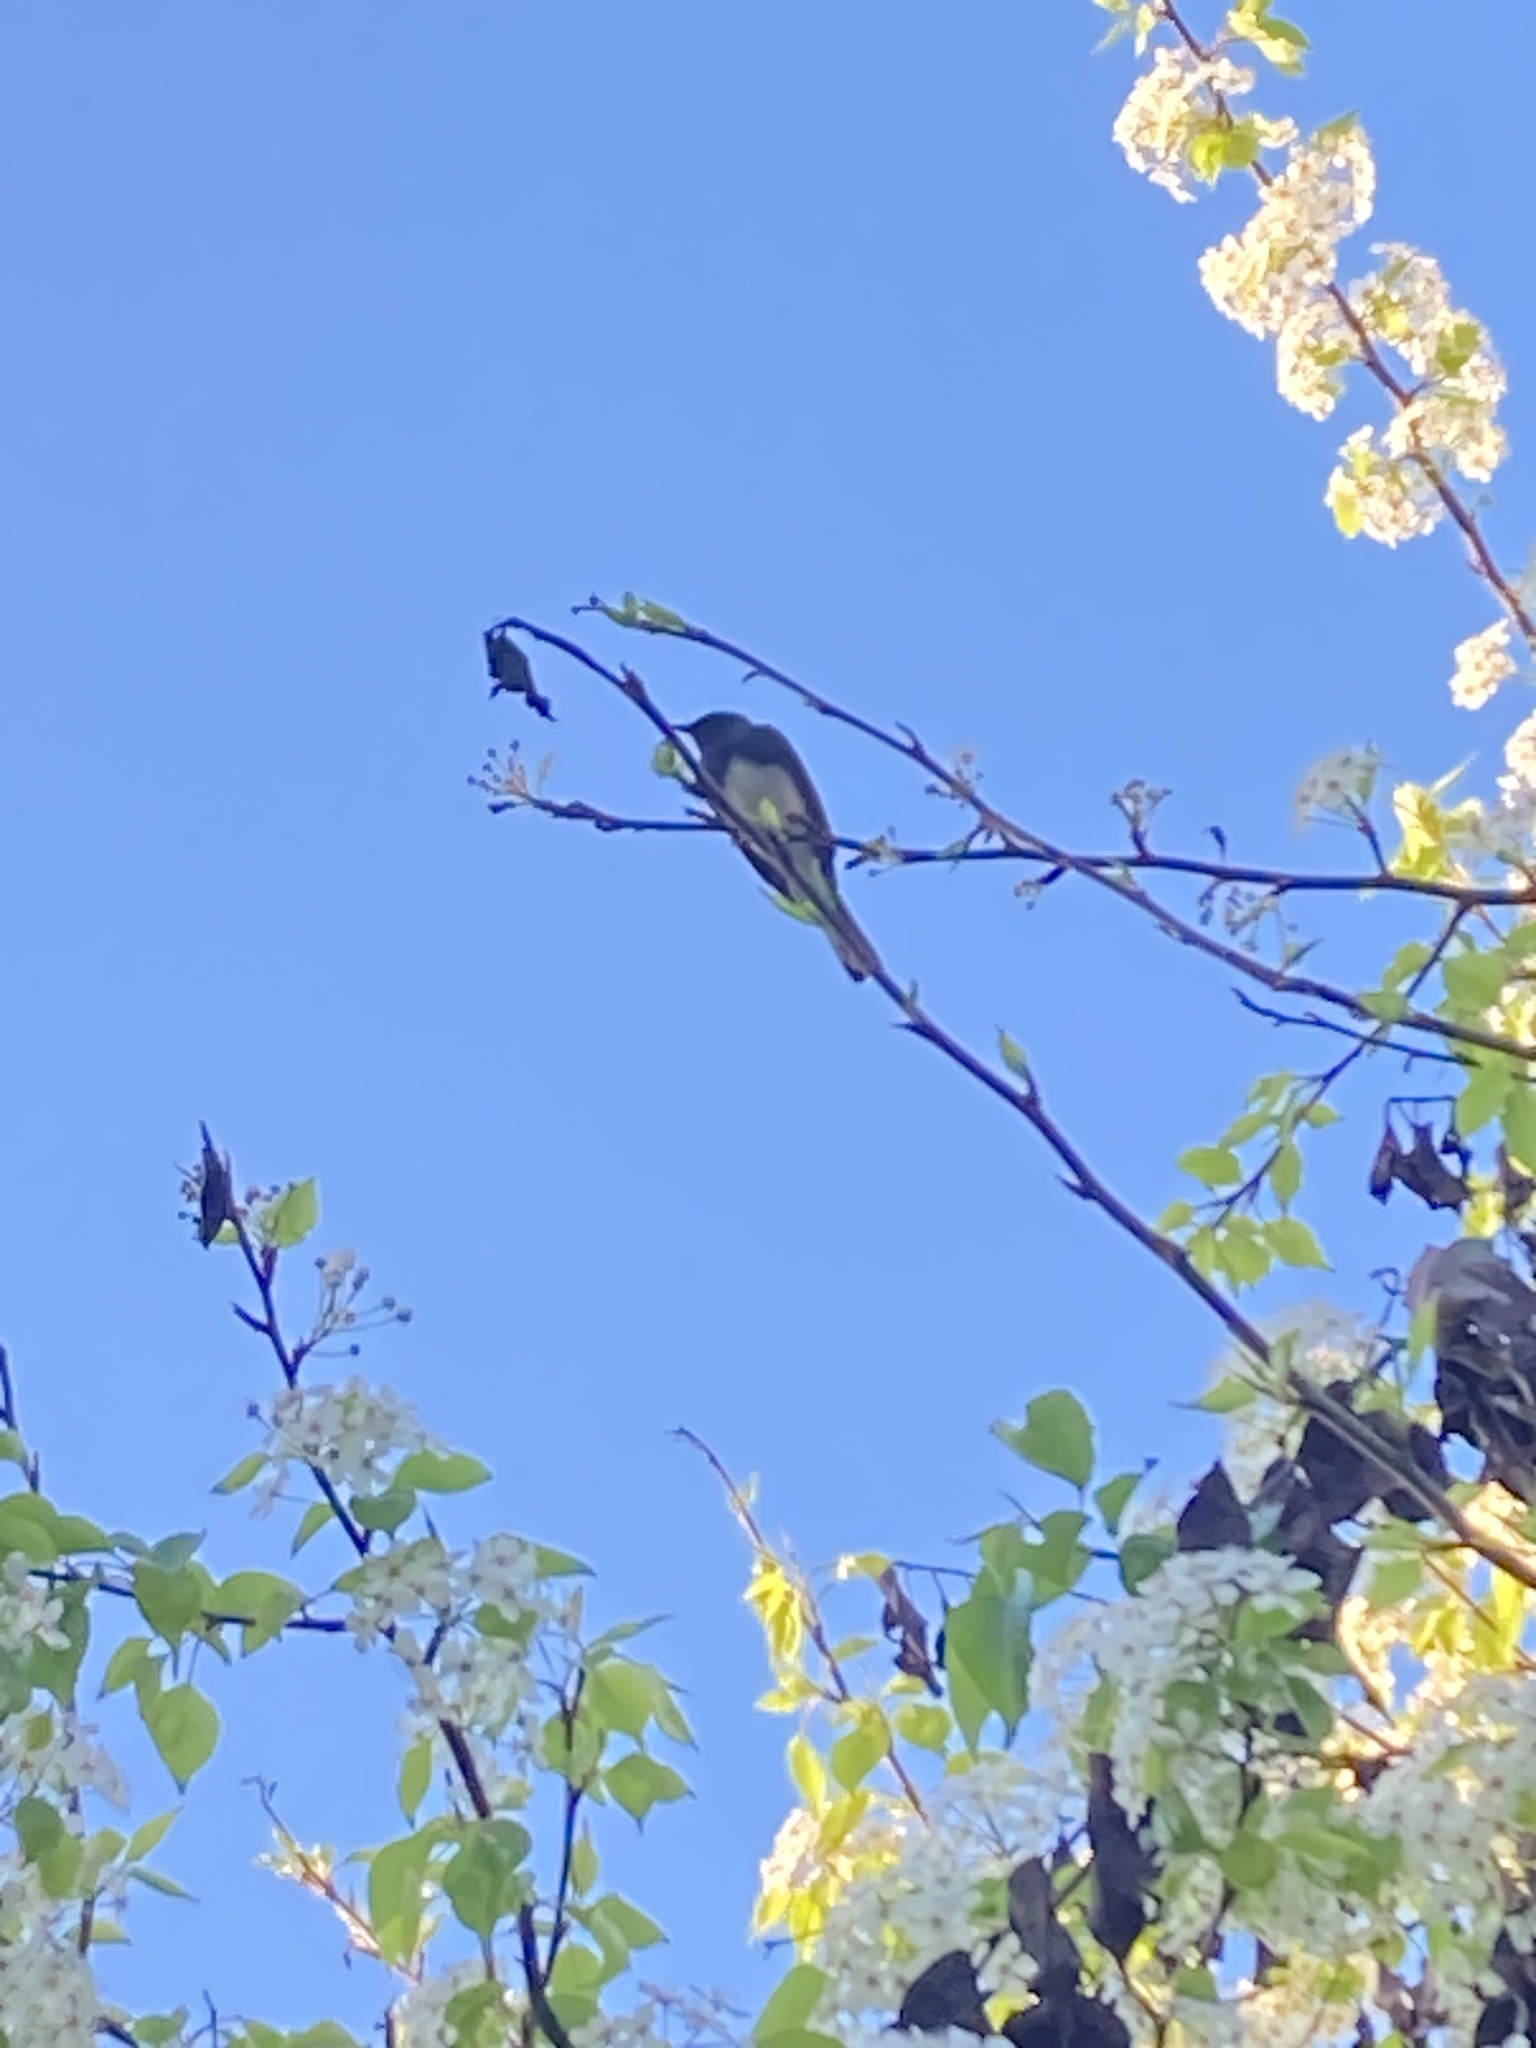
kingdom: Animalia
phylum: Chordata
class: Aves
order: Passeriformes
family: Tyrannidae
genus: Sayornis
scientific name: Sayornis nigricans
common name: Black phoebe
